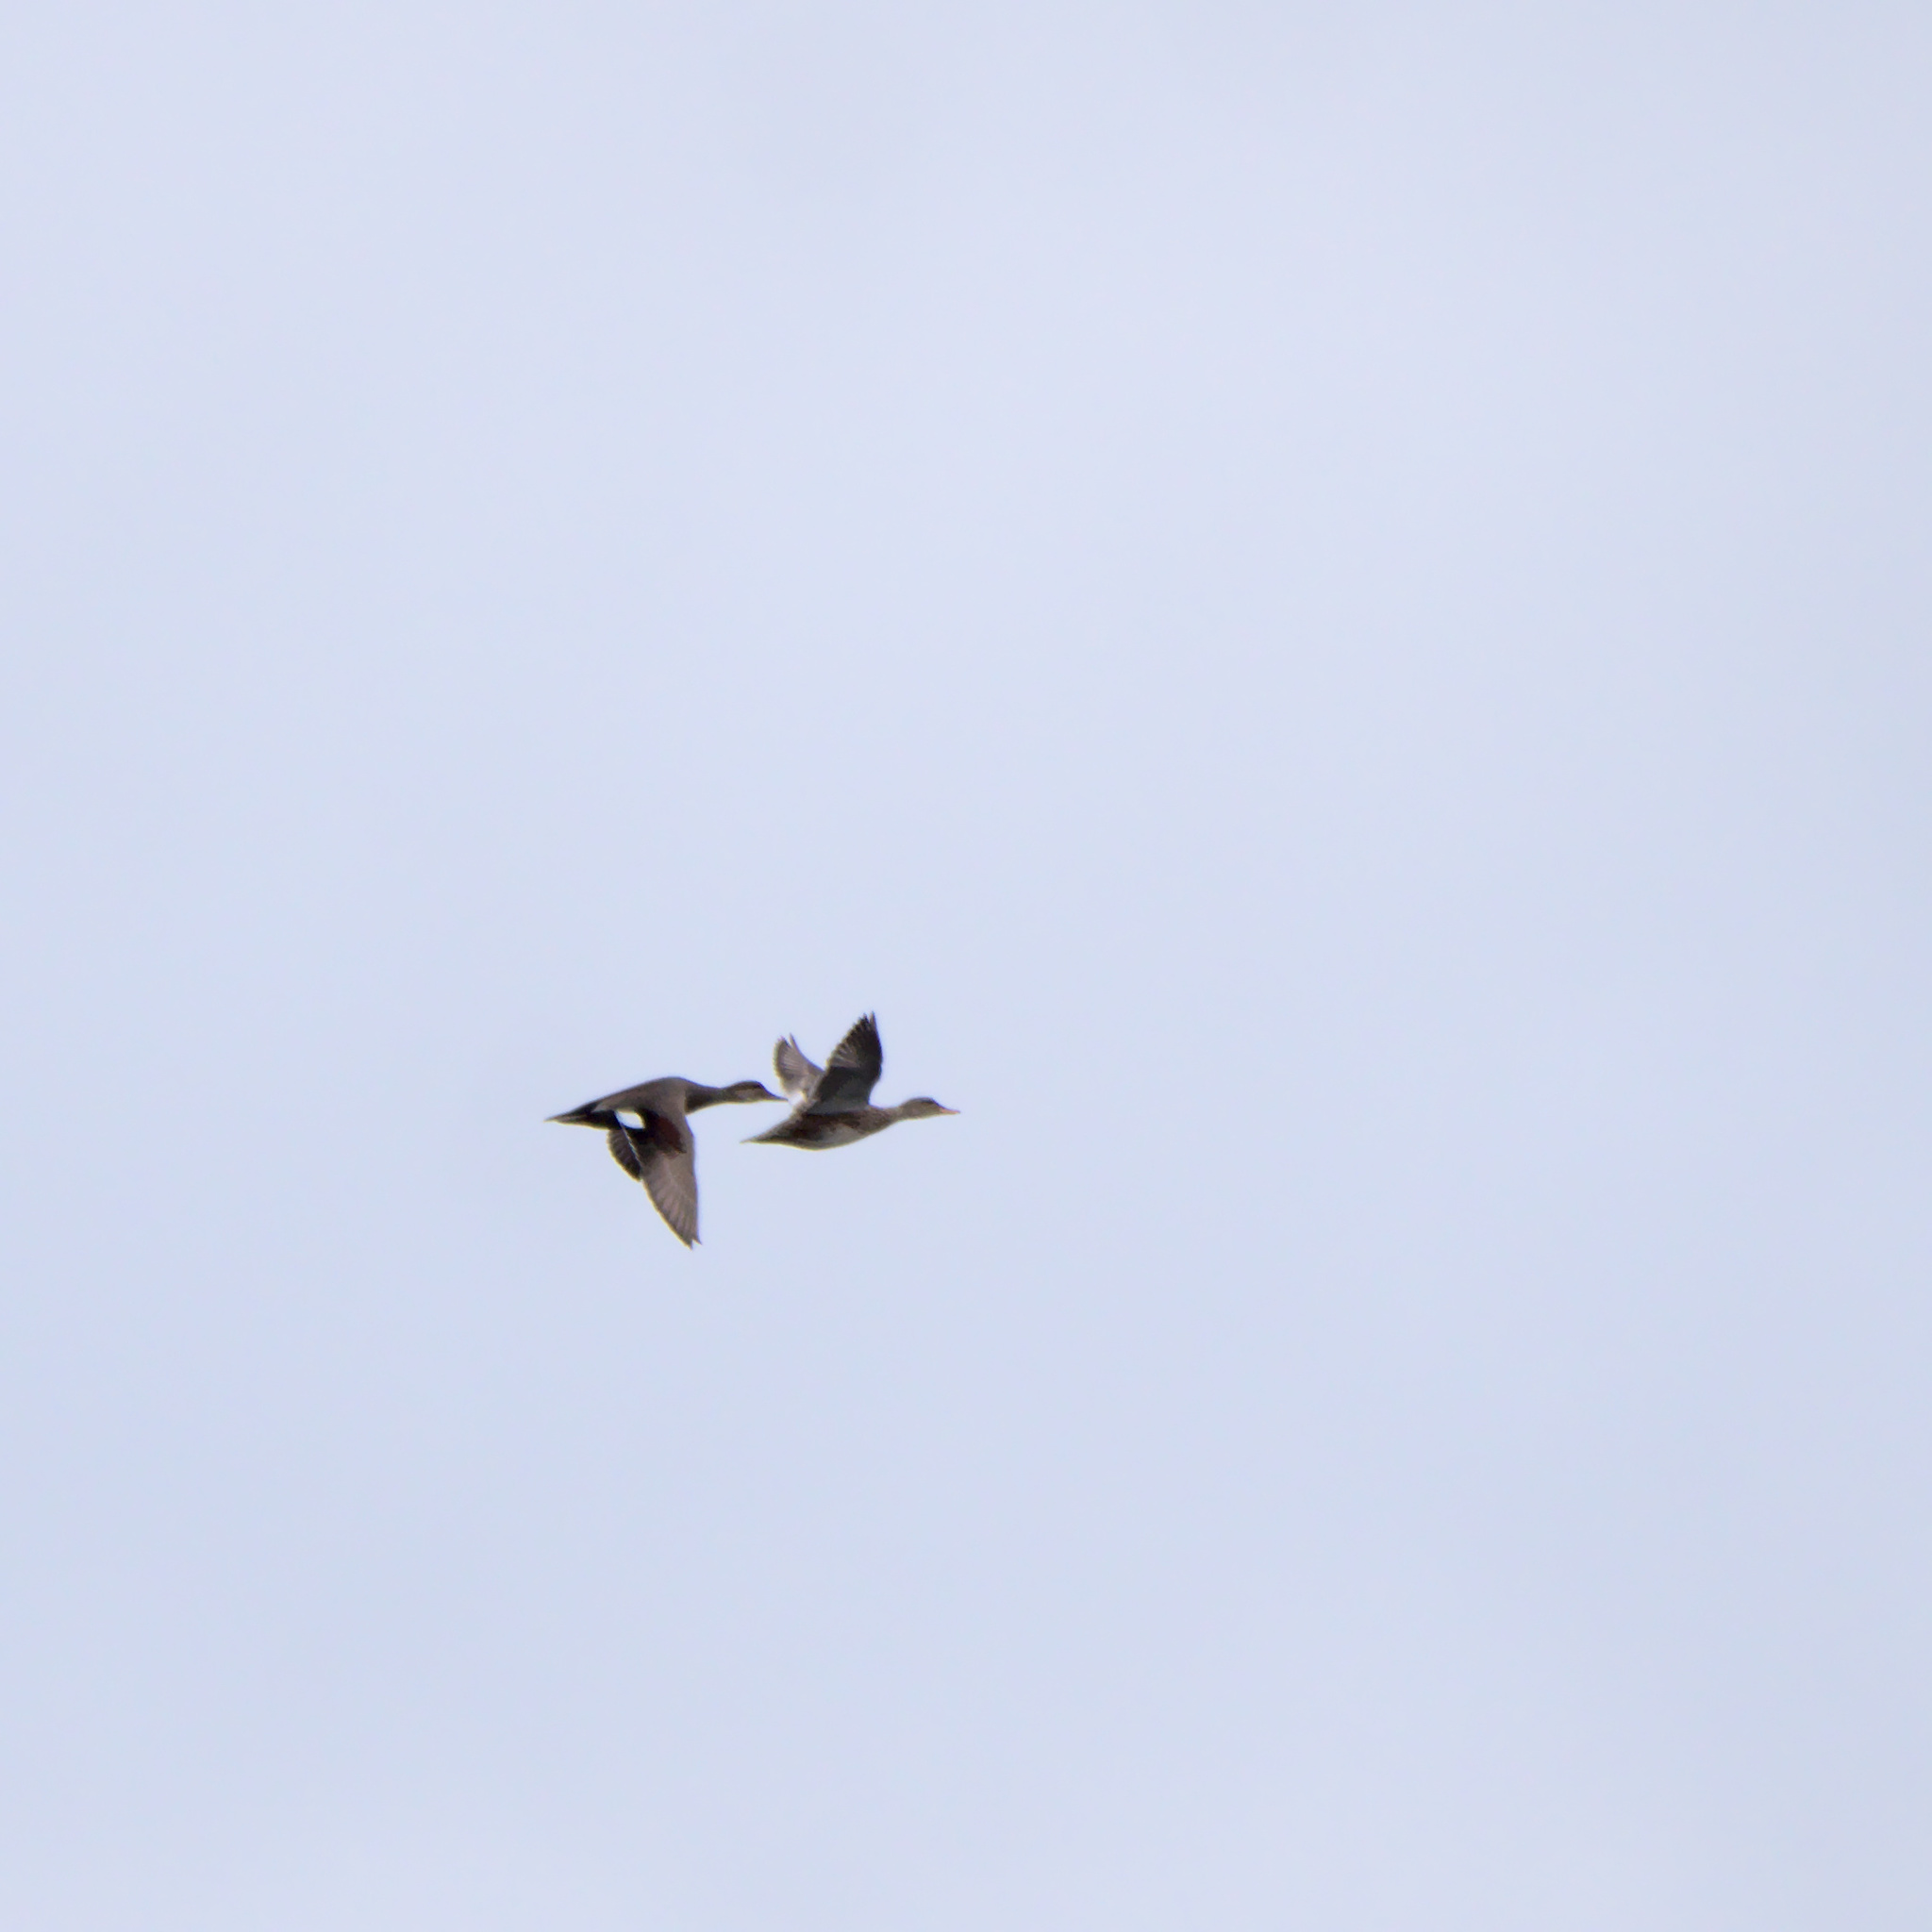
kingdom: Animalia
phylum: Chordata
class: Aves
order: Anseriformes
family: Anatidae
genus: Mareca
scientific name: Mareca strepera
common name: Gadwall
